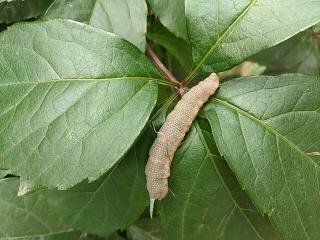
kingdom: Animalia
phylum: Arthropoda
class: Insecta
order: Lepidoptera
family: Sphingidae
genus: Mimas
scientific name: Mimas tiliae
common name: Lime hawk-moth
